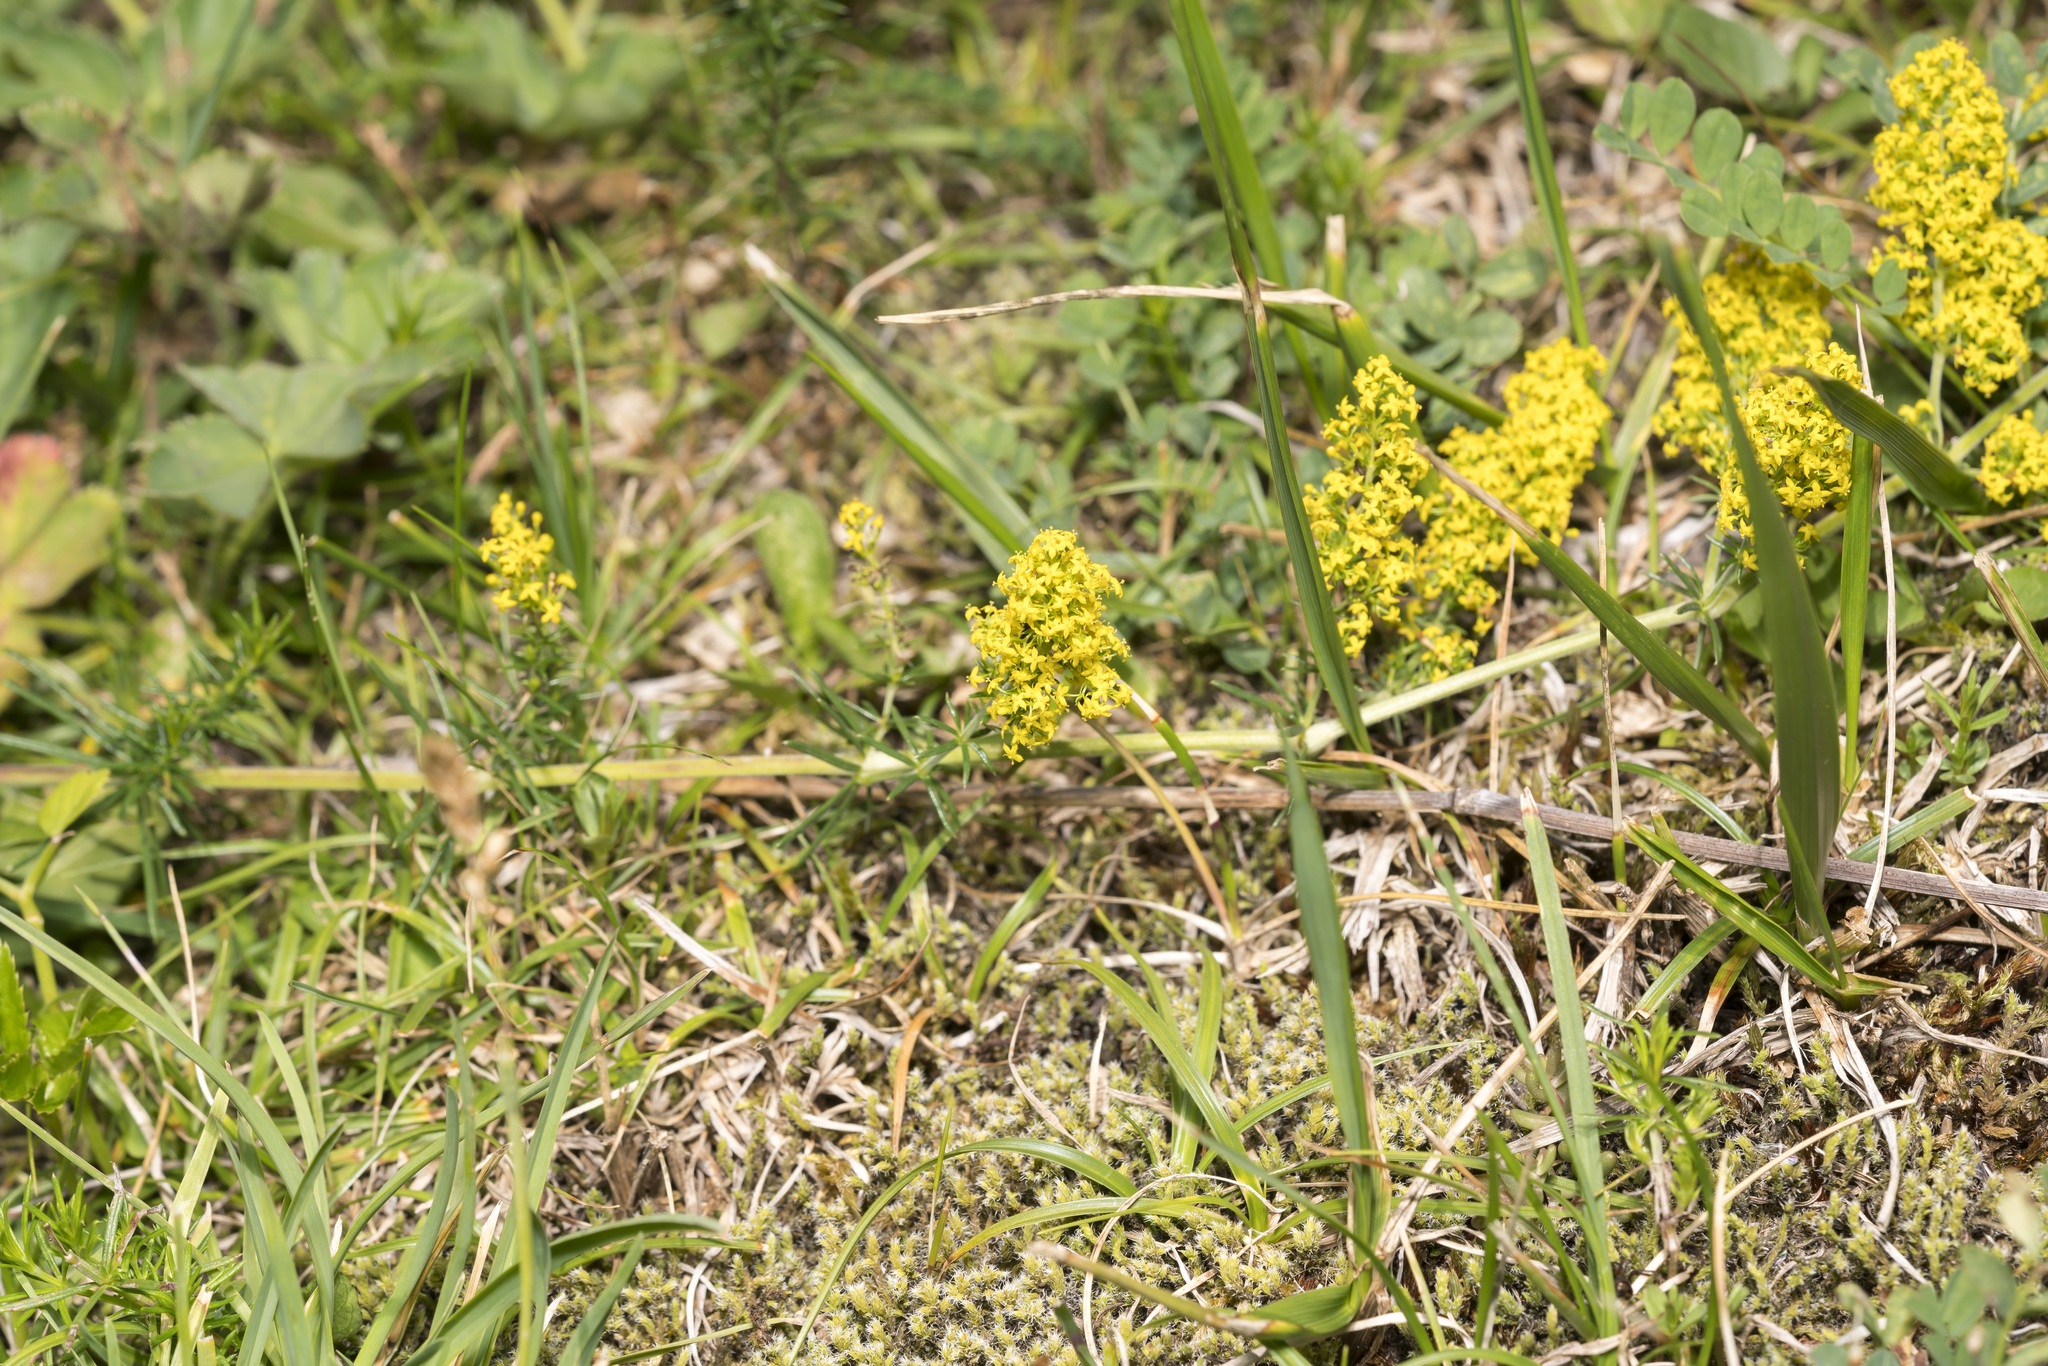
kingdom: Plantae
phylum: Tracheophyta
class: Magnoliopsida
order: Gentianales
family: Rubiaceae
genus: Galium
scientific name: Galium verum
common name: Lady's bedstraw
